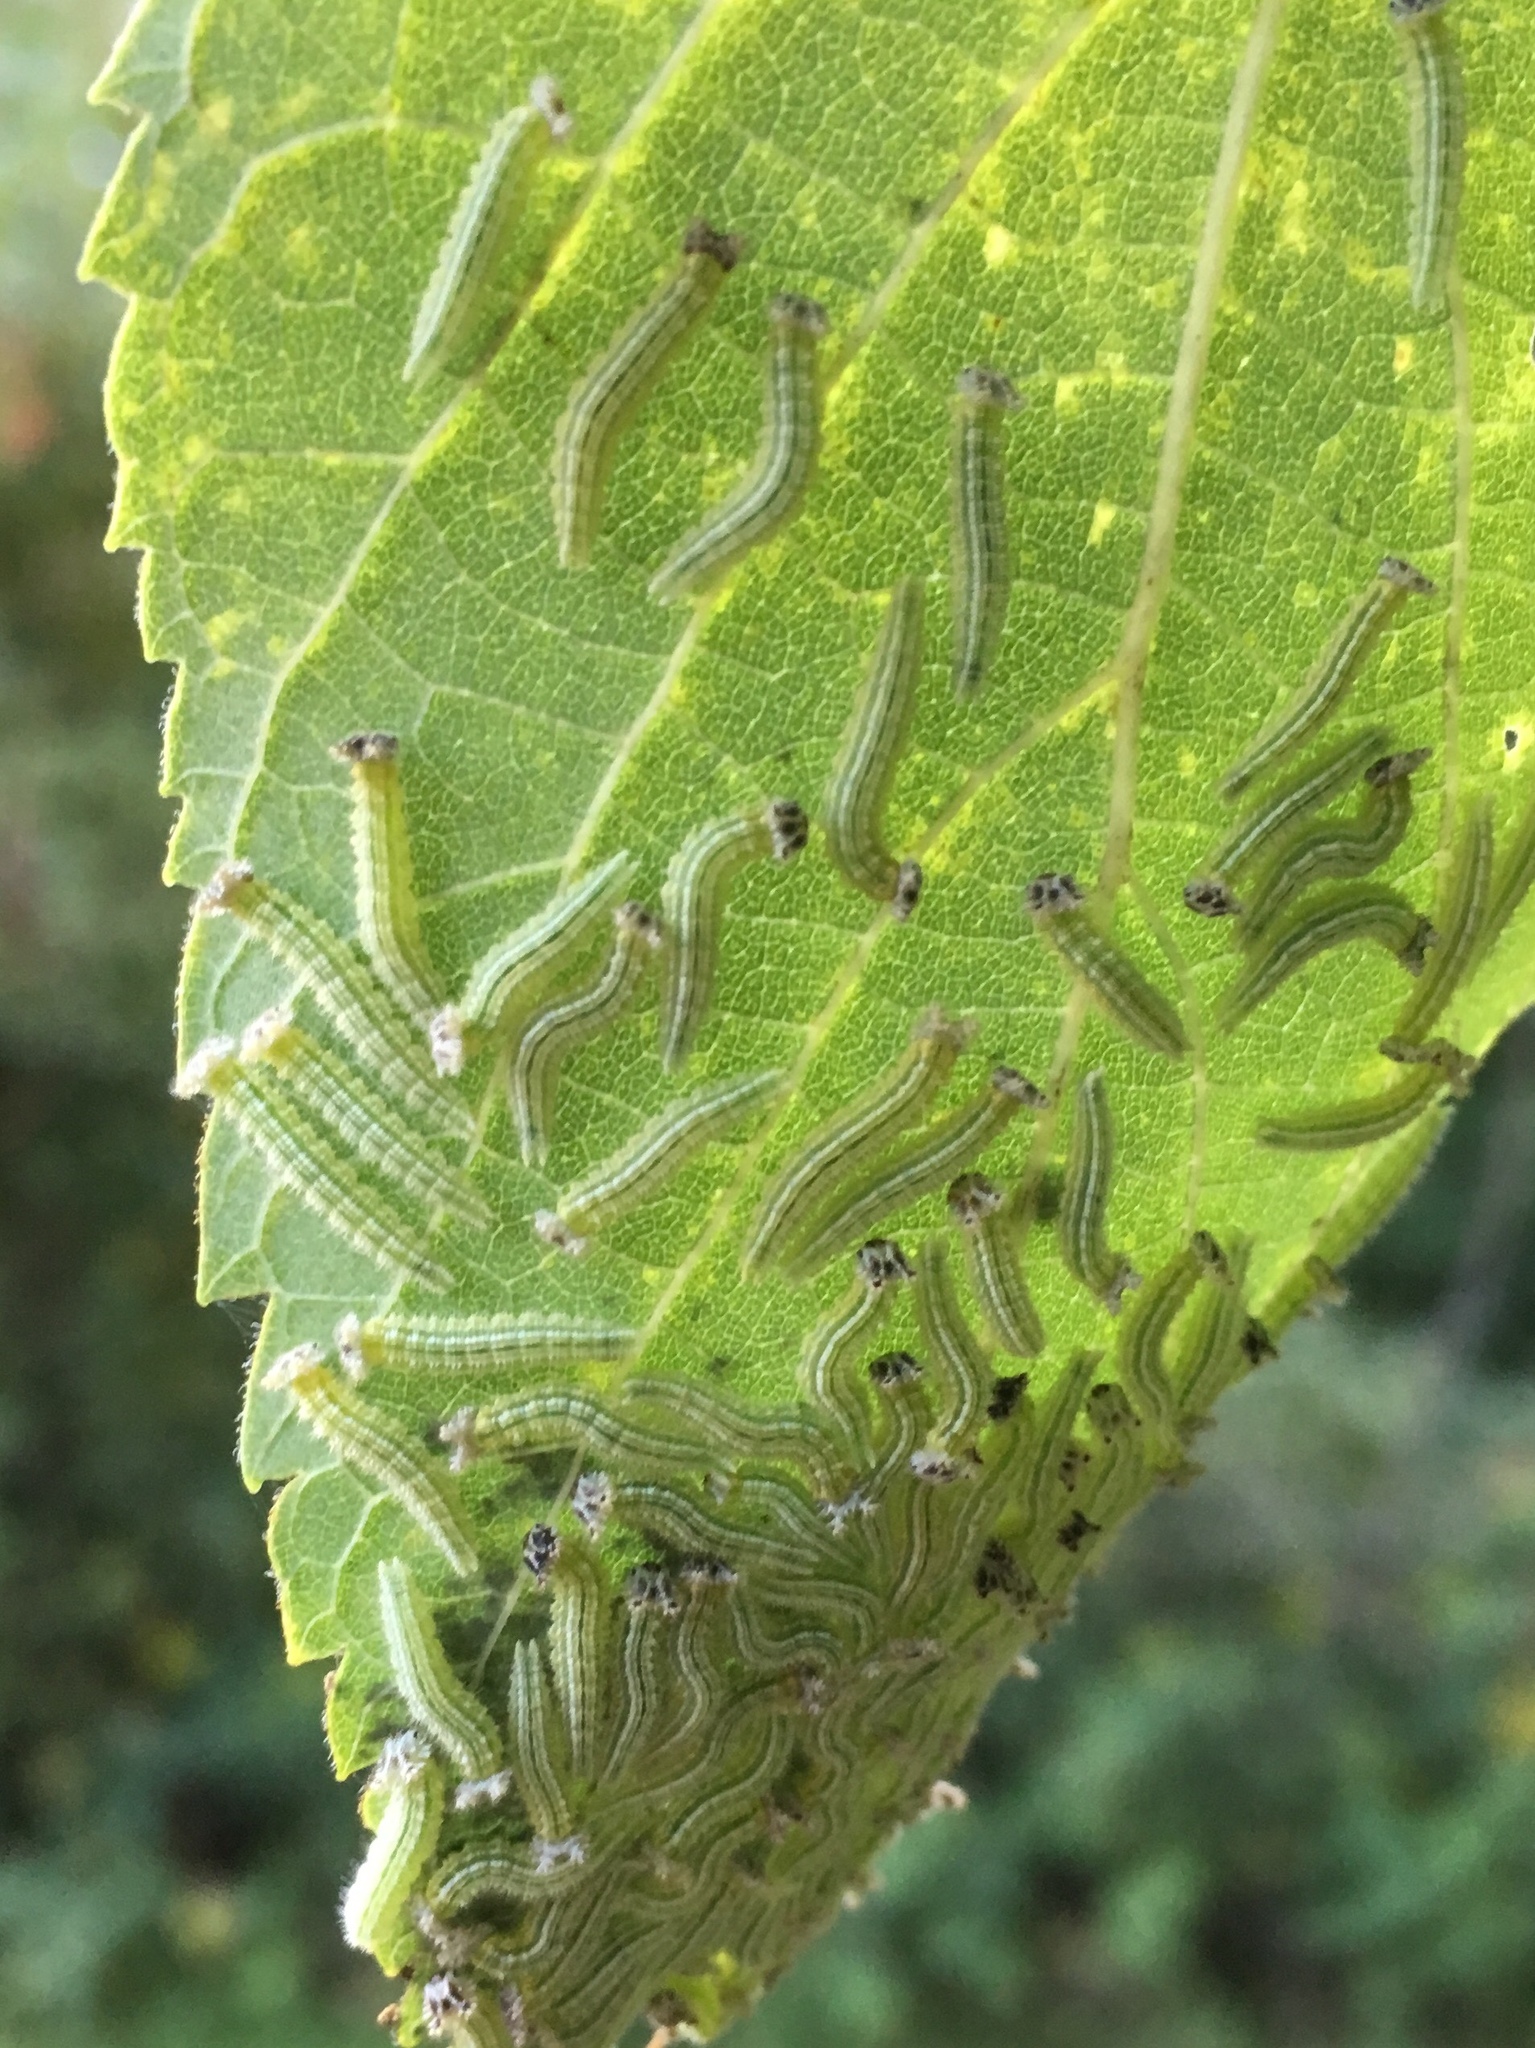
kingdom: Animalia
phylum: Arthropoda
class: Insecta
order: Lepidoptera
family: Nymphalidae
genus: Asterocampa
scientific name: Asterocampa clyton
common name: Tawny emperor
